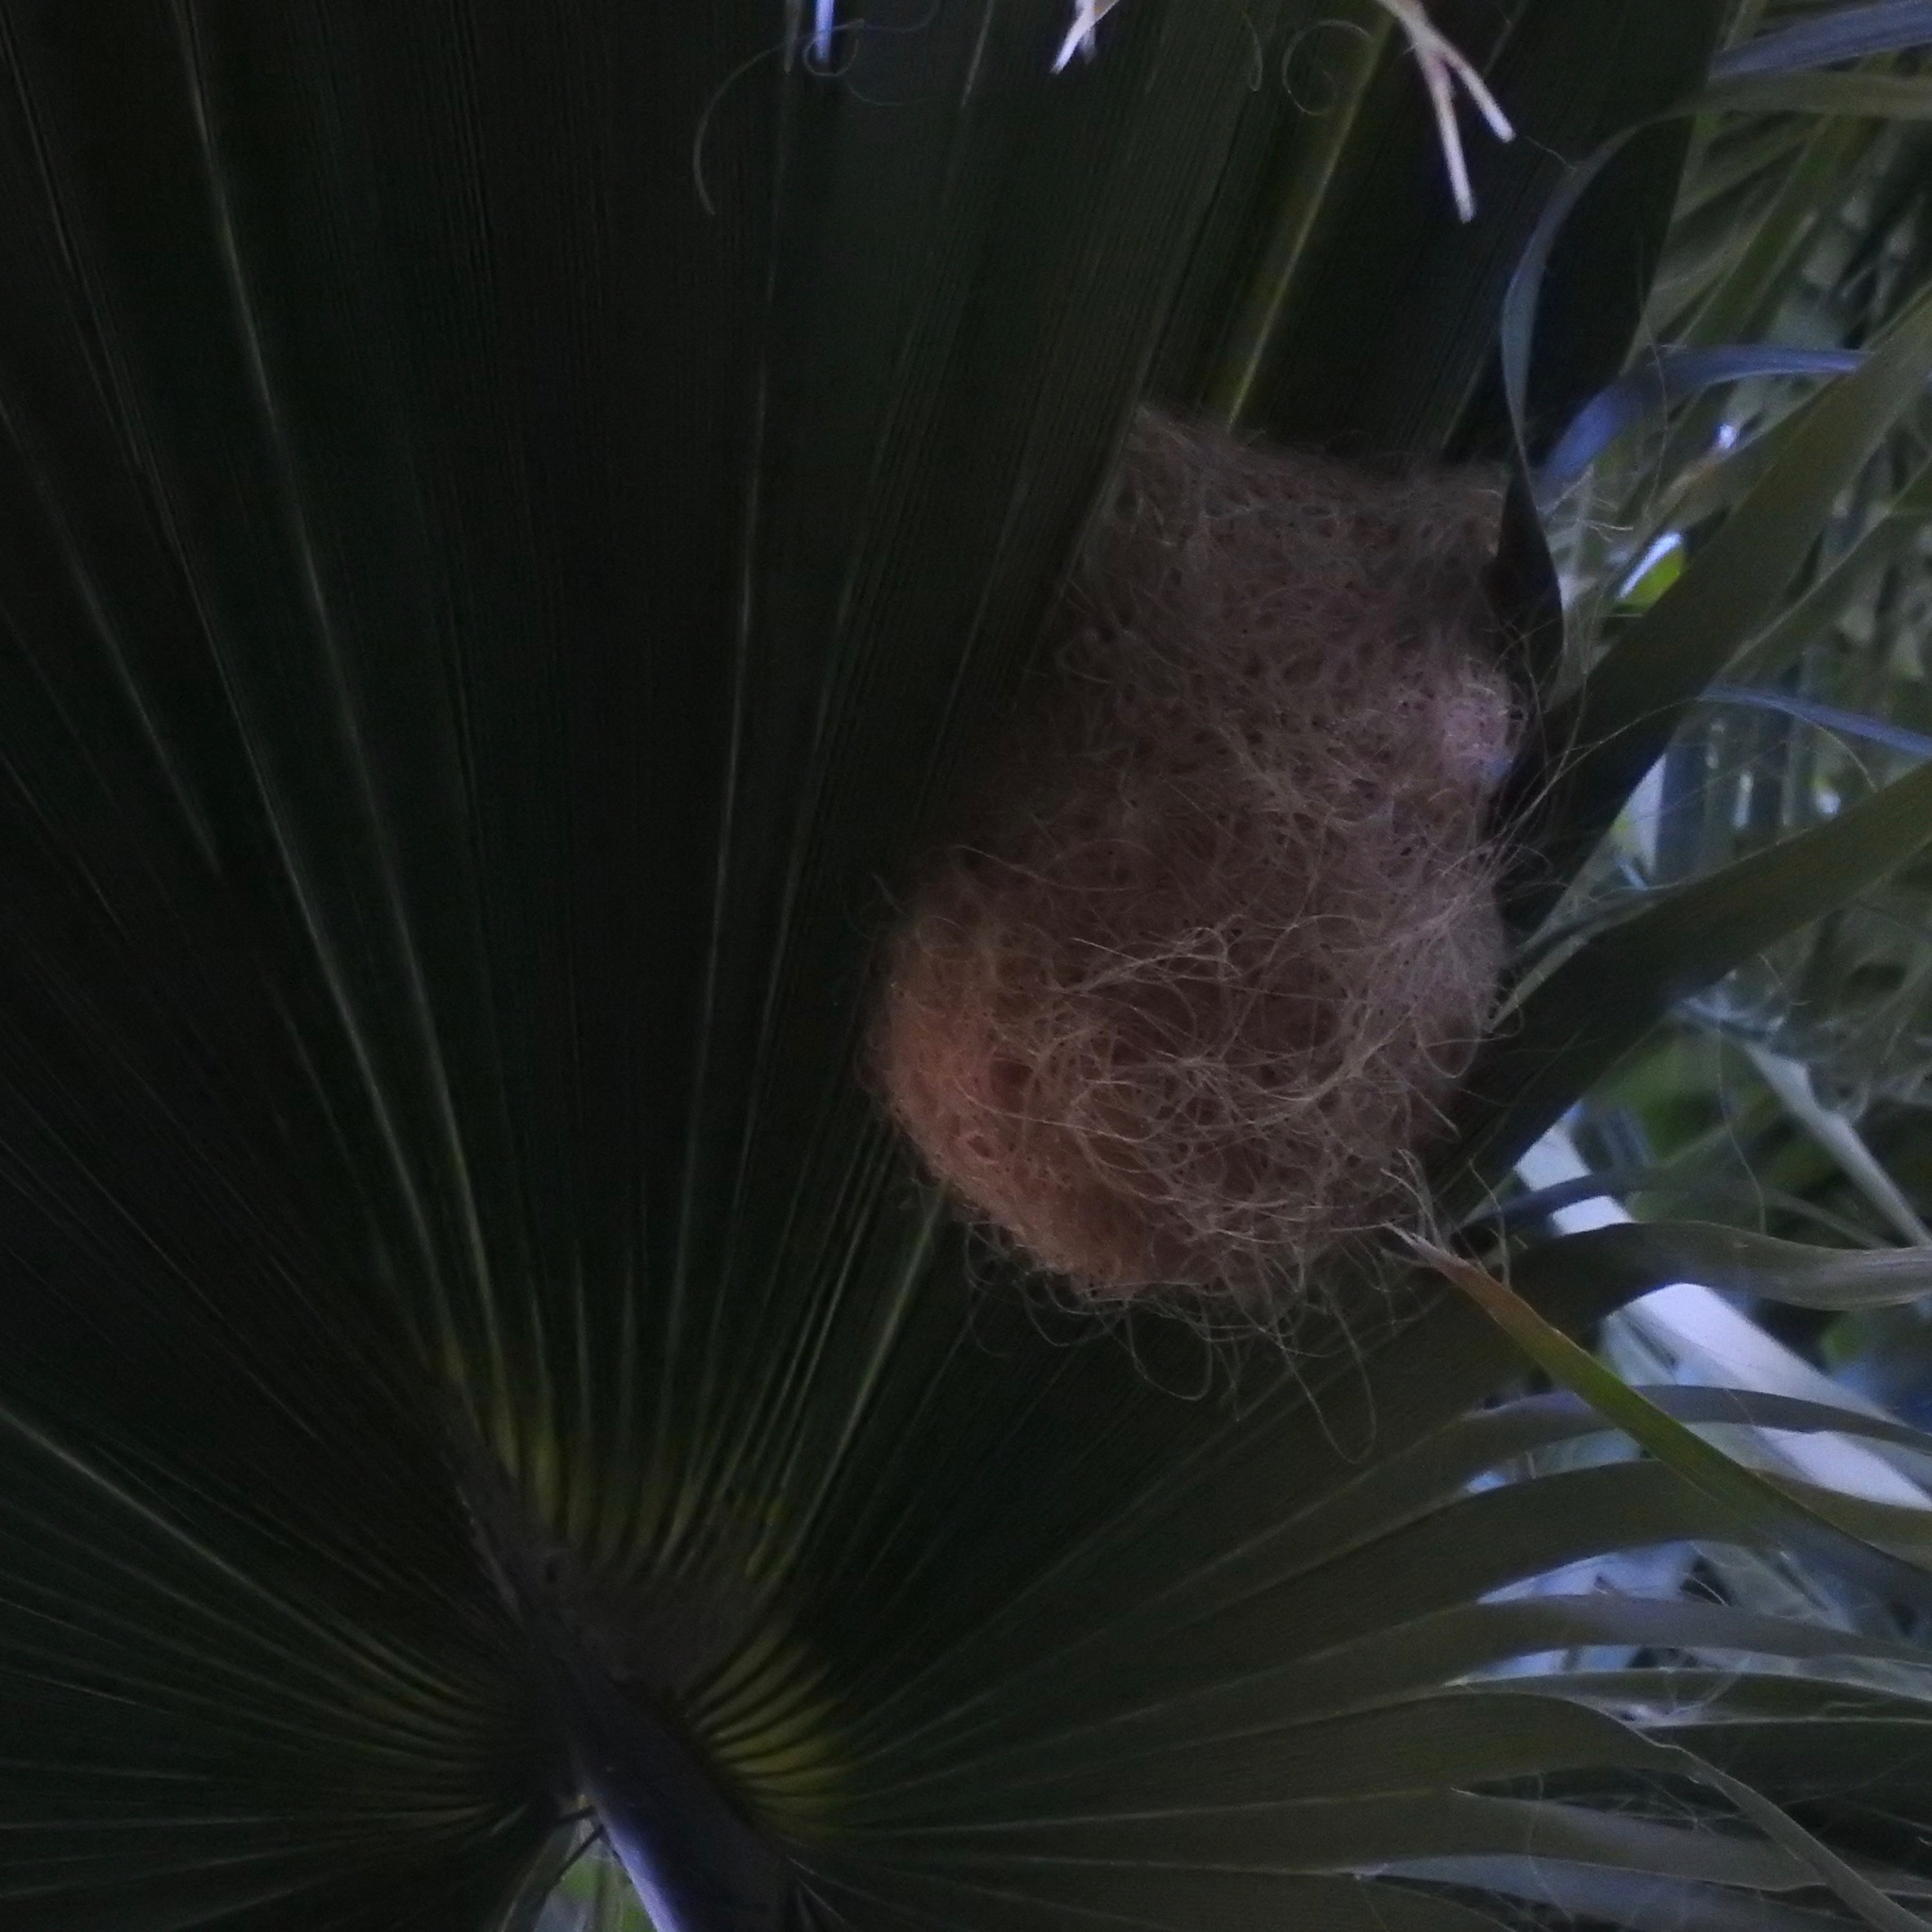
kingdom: Animalia
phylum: Chordata
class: Aves
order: Passeriformes
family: Icteridae
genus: Icterus
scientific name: Icterus cucullatus
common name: Hooded oriole
